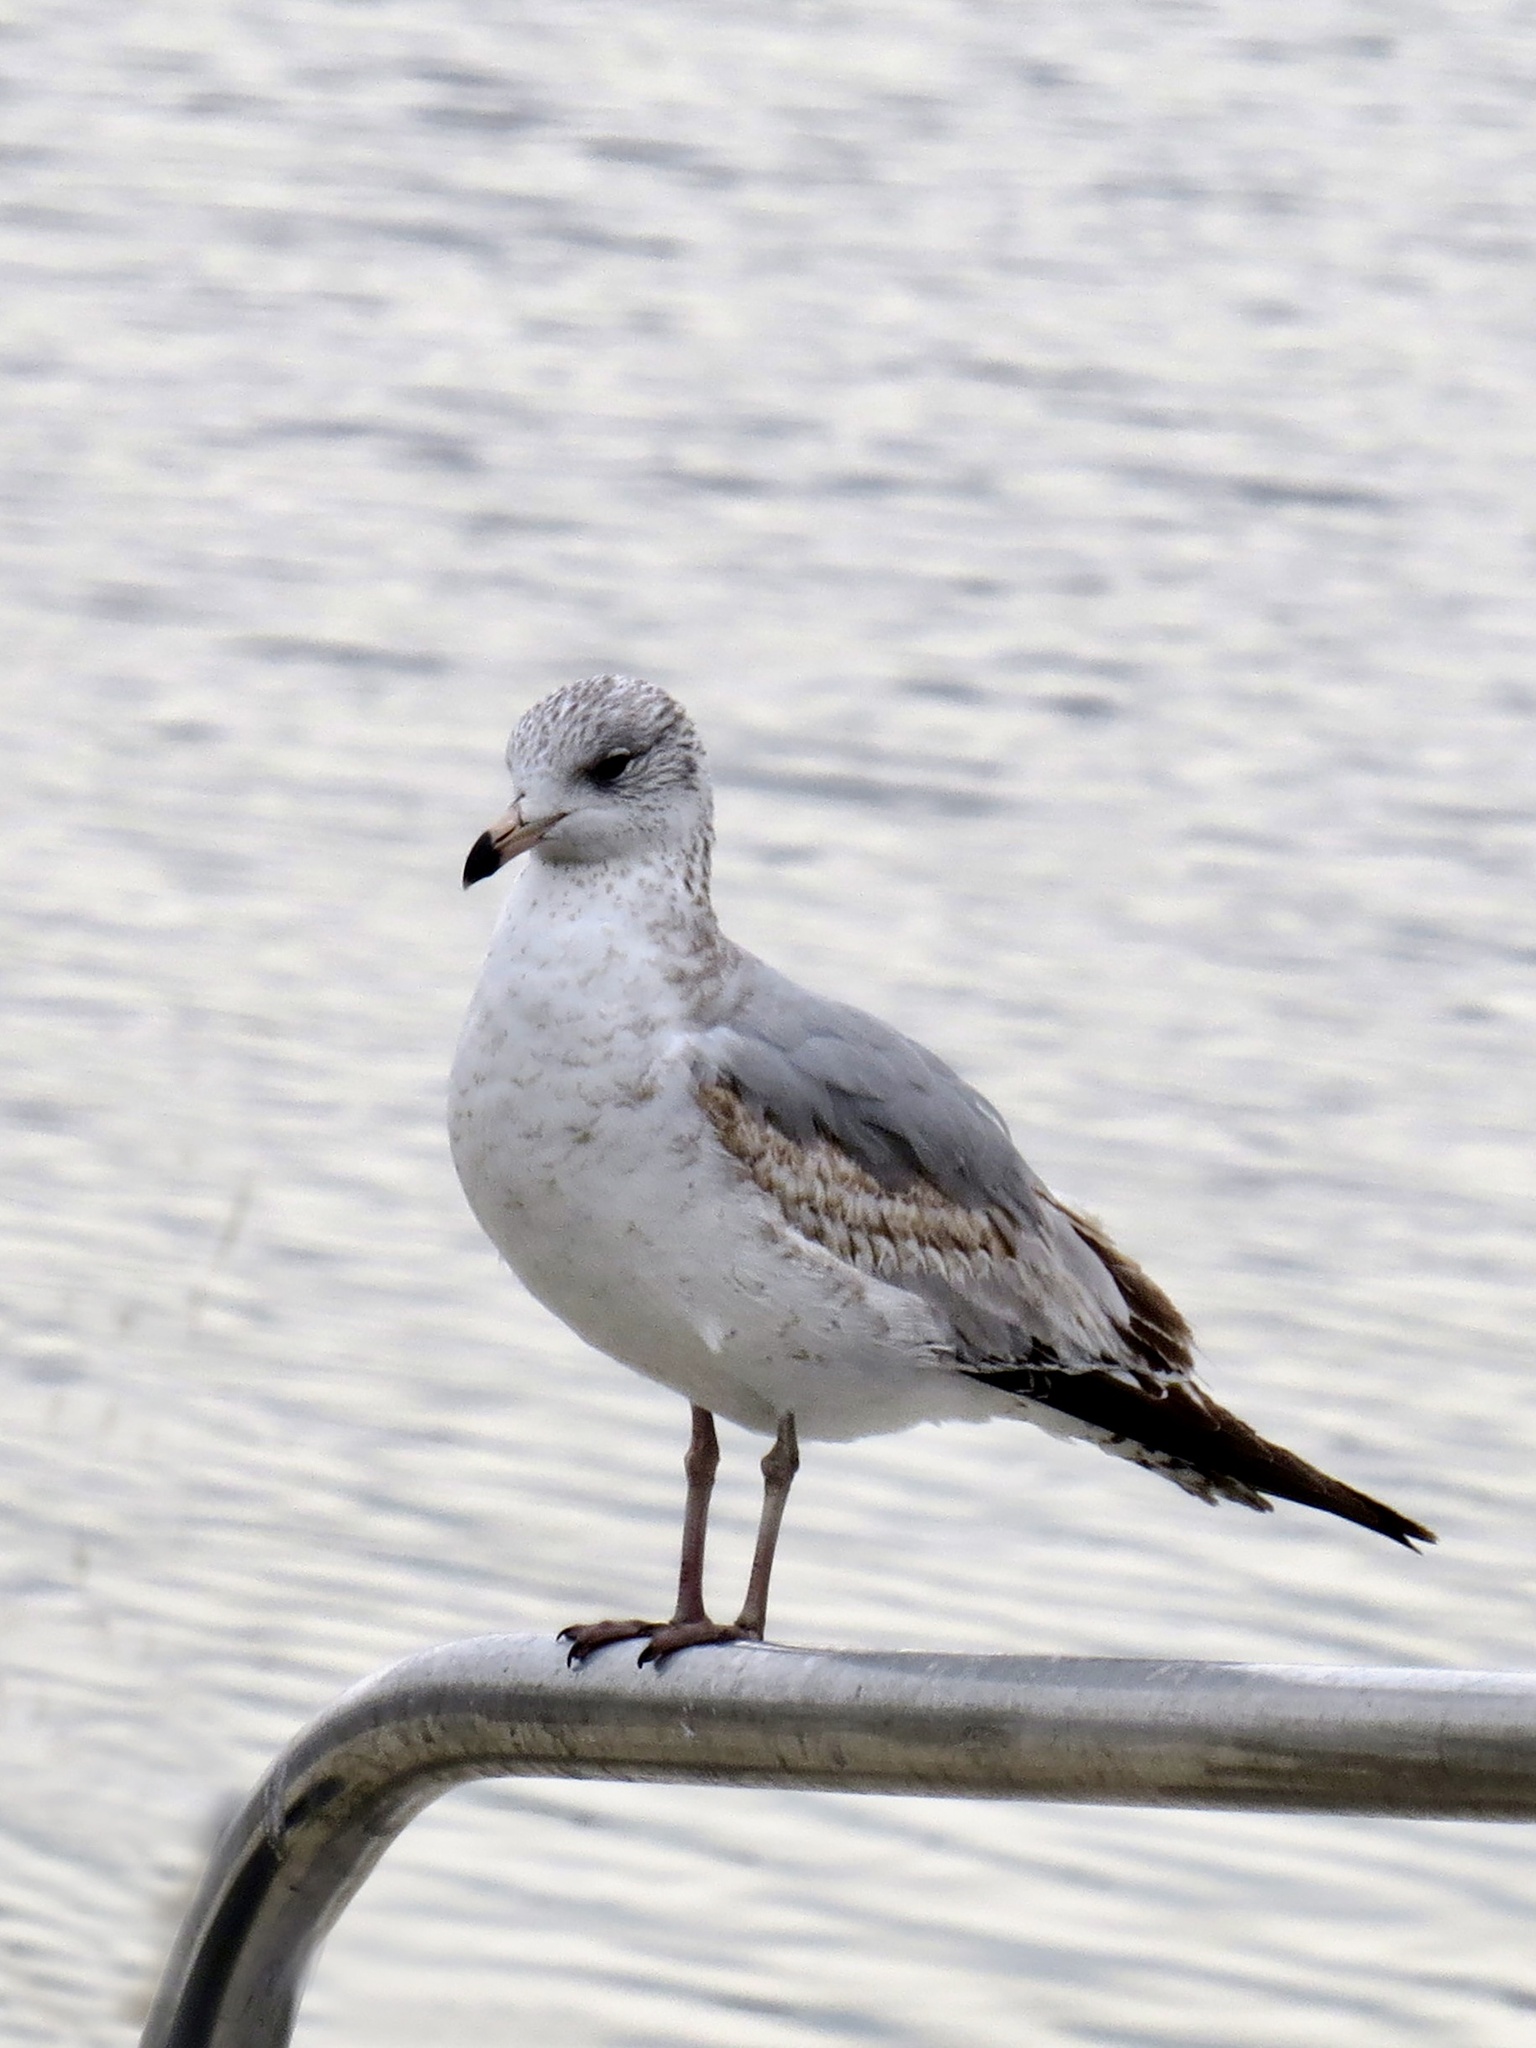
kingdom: Animalia
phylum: Chordata
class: Aves
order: Charadriiformes
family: Laridae
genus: Larus
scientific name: Larus delawarensis
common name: Ring-billed gull
